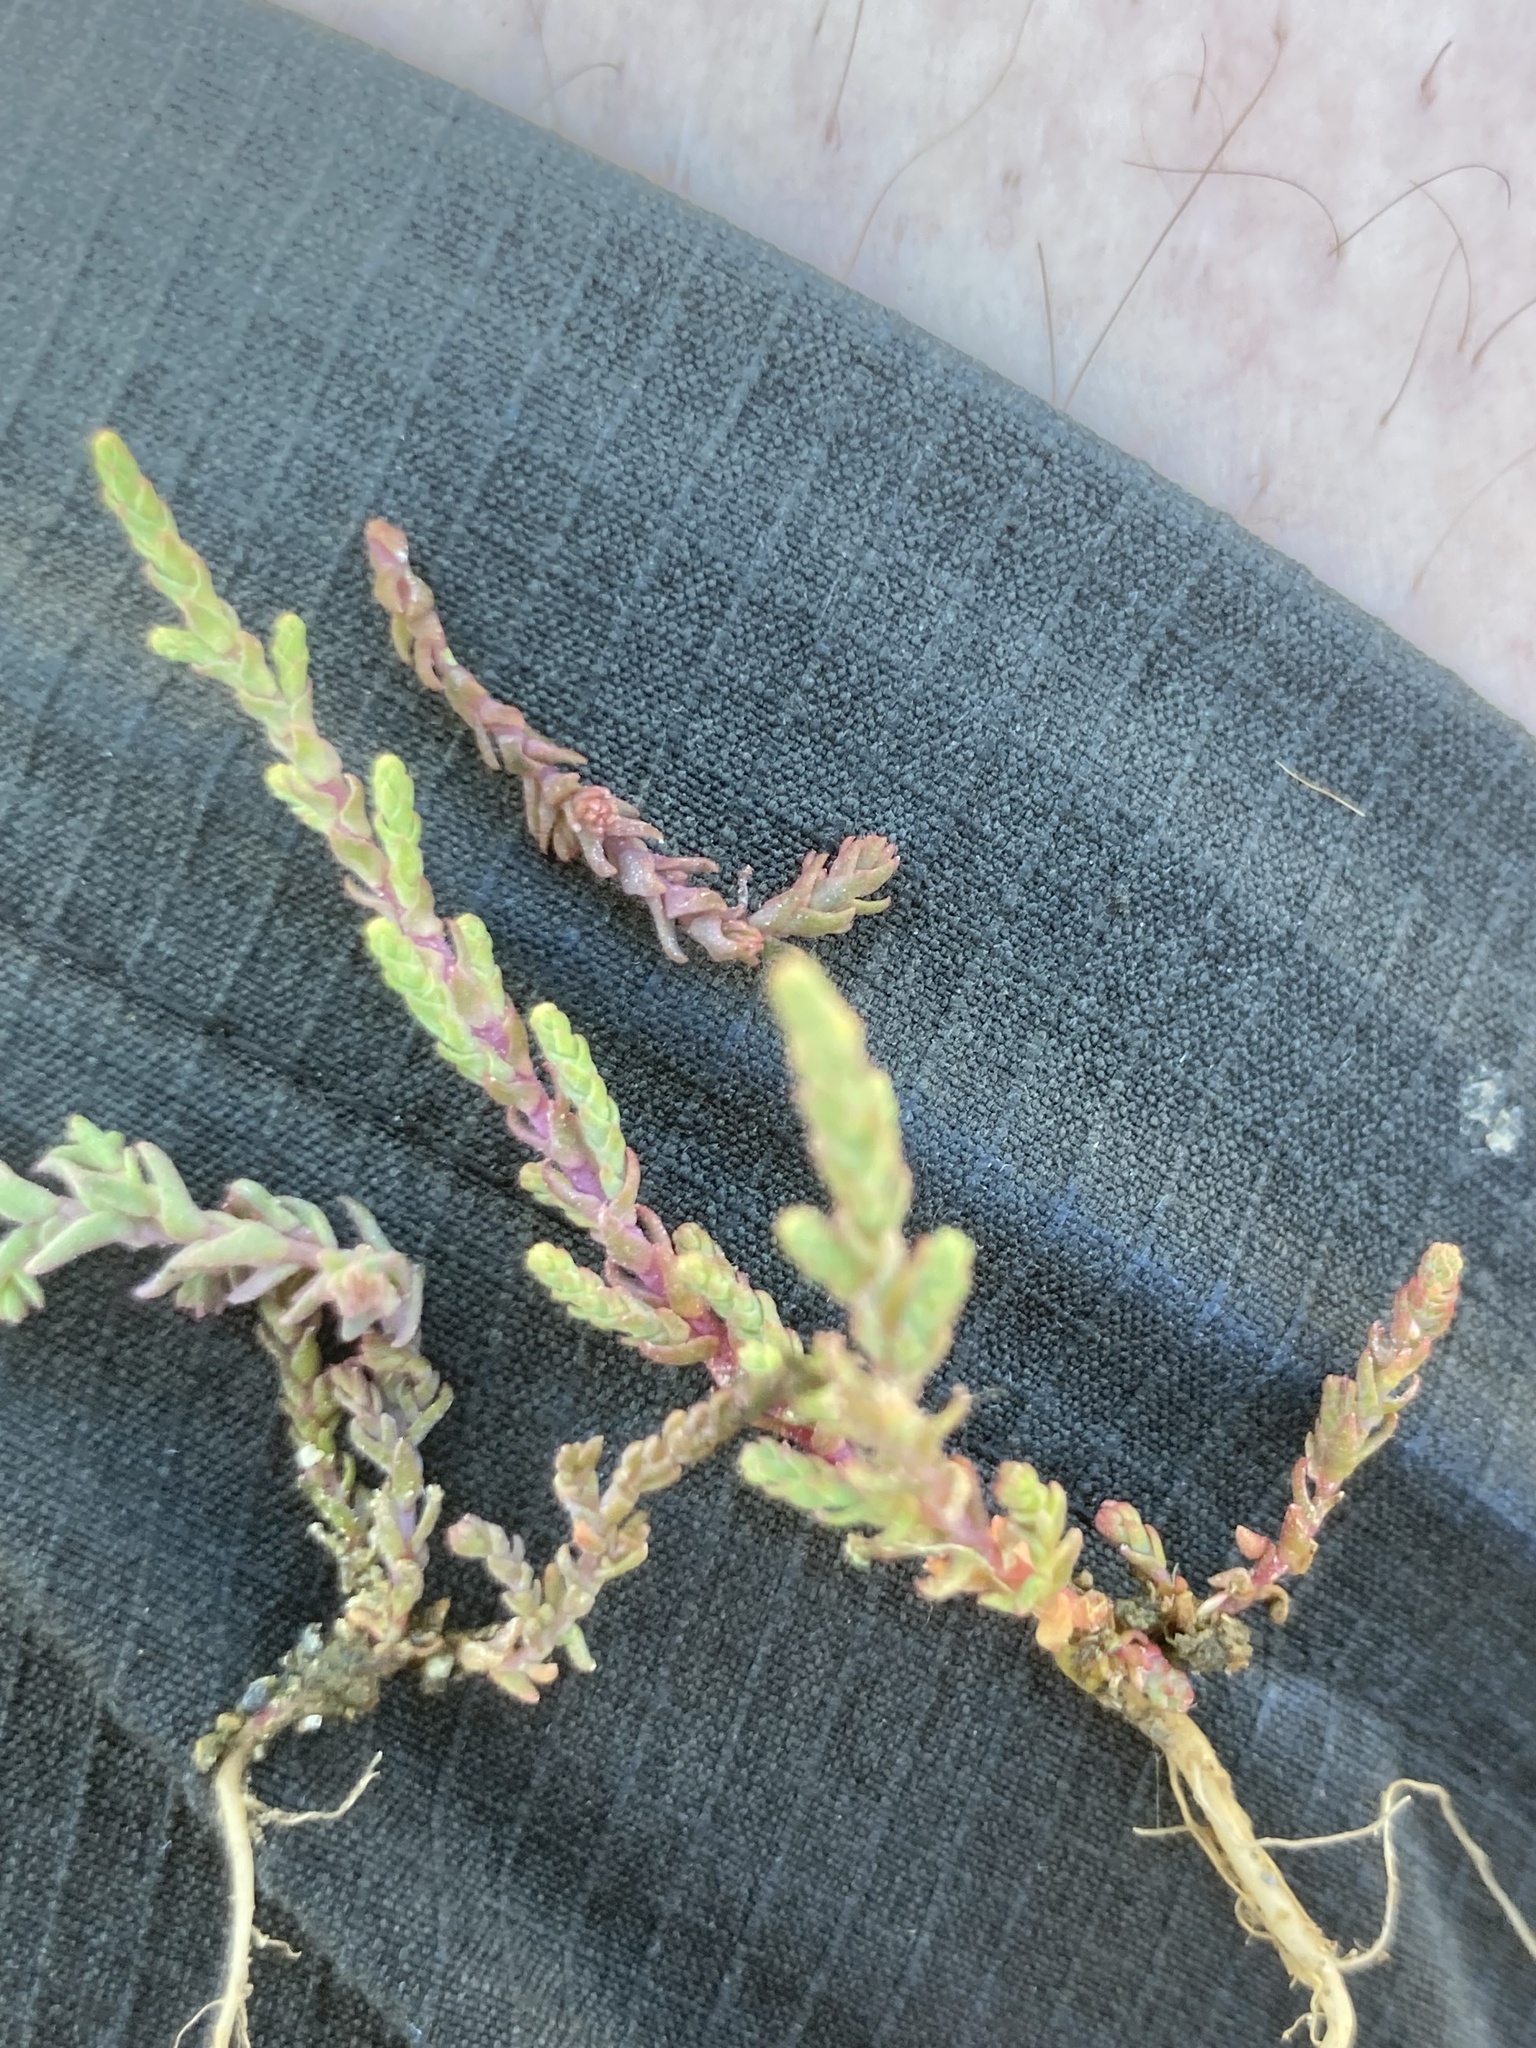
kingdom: Plantae
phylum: Tracheophyta
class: Magnoliopsida
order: Malvales
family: Thymelaeaceae
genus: Thymelaea
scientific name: Thymelaea hirsuta
